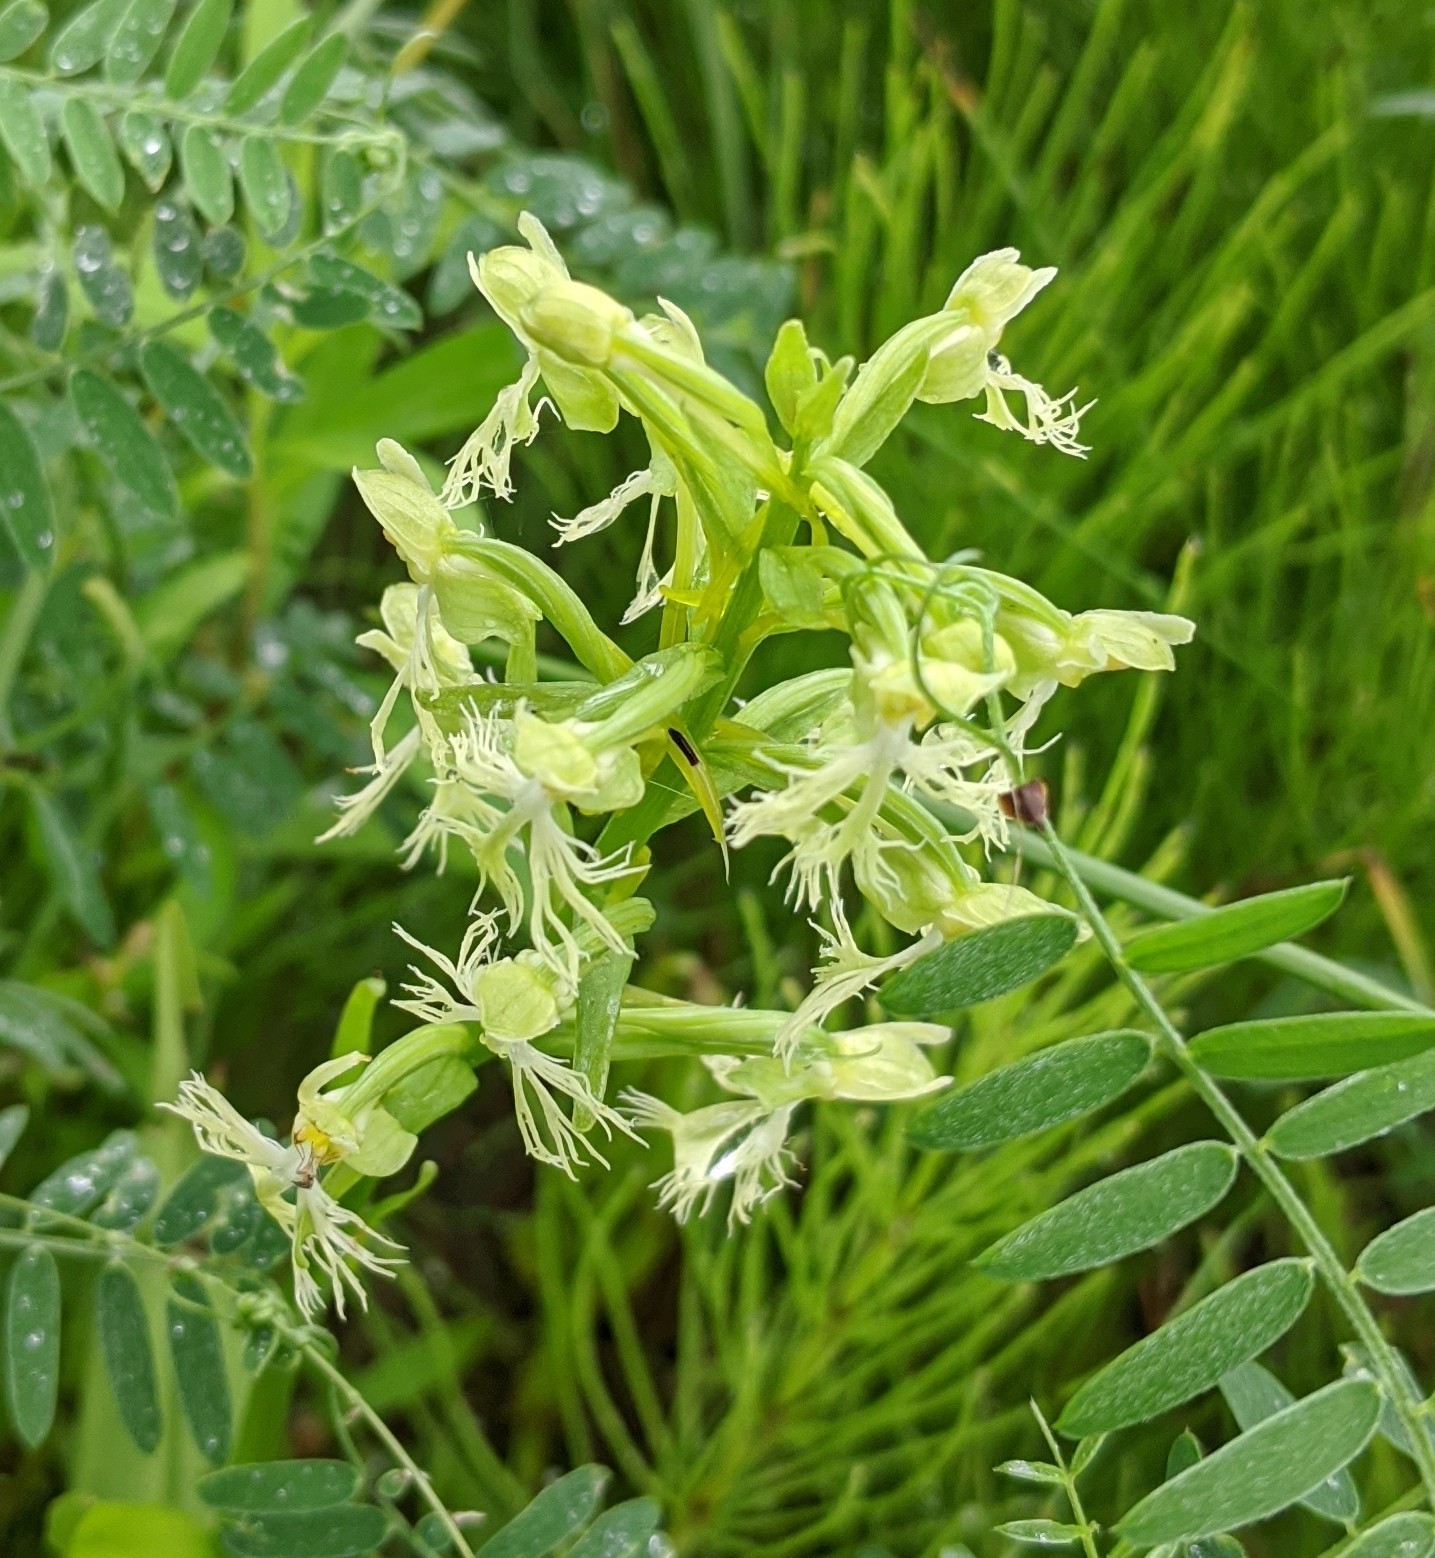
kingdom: Plantae
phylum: Tracheophyta
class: Liliopsida
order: Asparagales
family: Orchidaceae
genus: Platanthera
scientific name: Platanthera lacera
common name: Green fringed orchid
